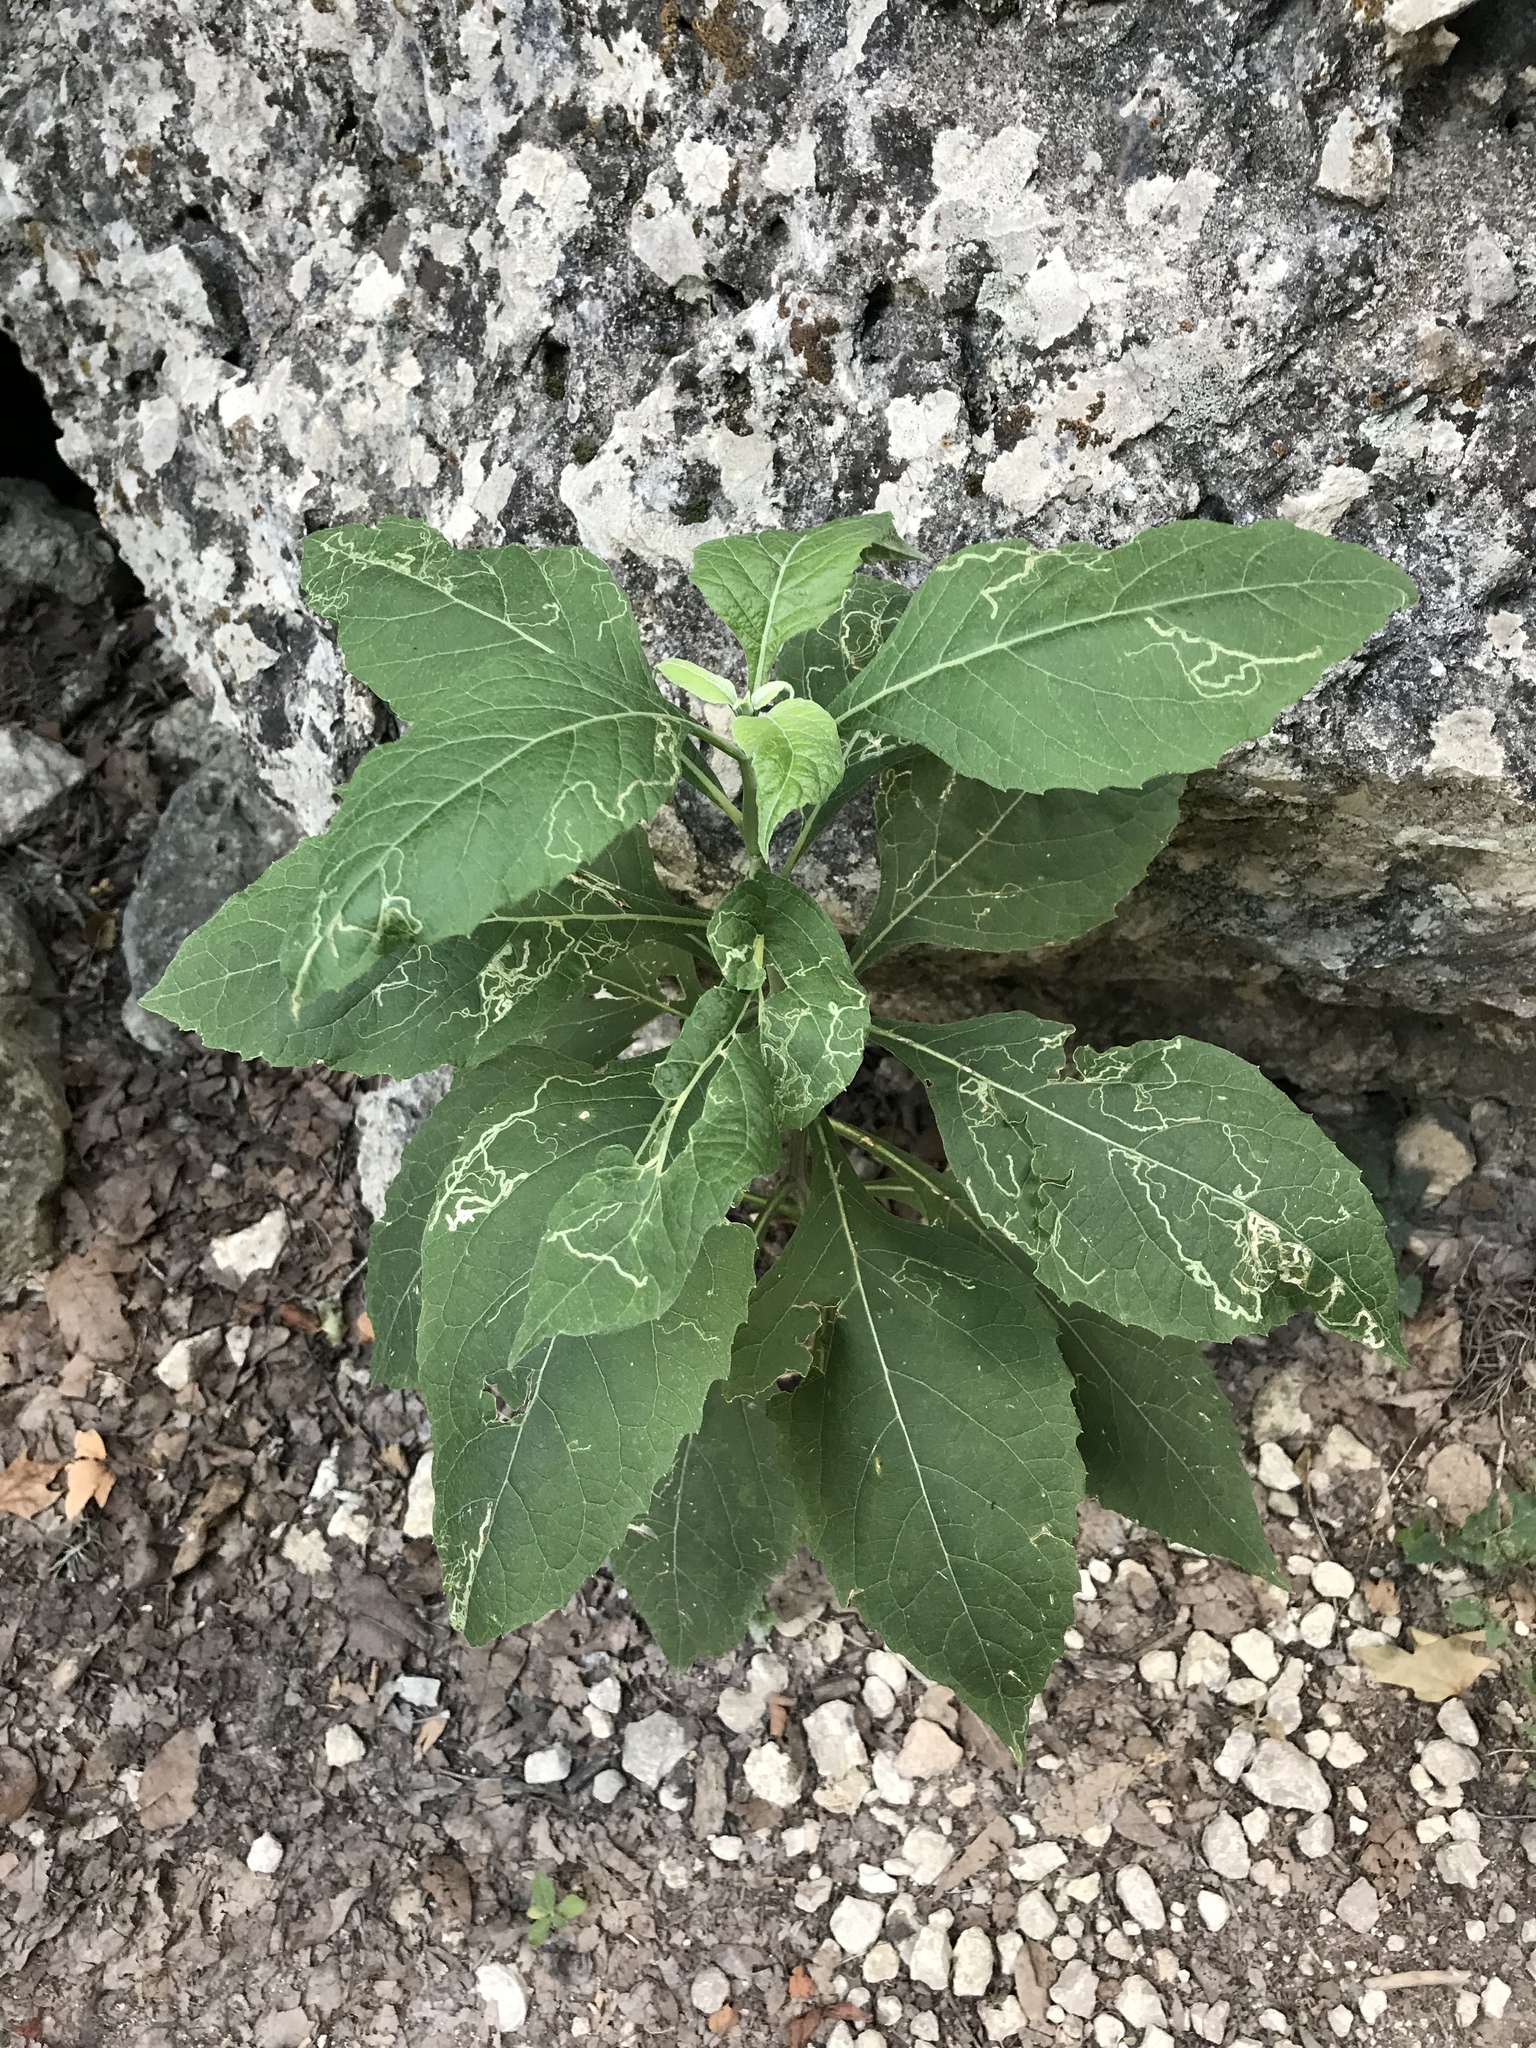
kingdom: Plantae
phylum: Tracheophyta
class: Magnoliopsida
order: Asterales
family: Asteraceae
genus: Verbesina
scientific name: Verbesina virginica
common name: Frostweed
